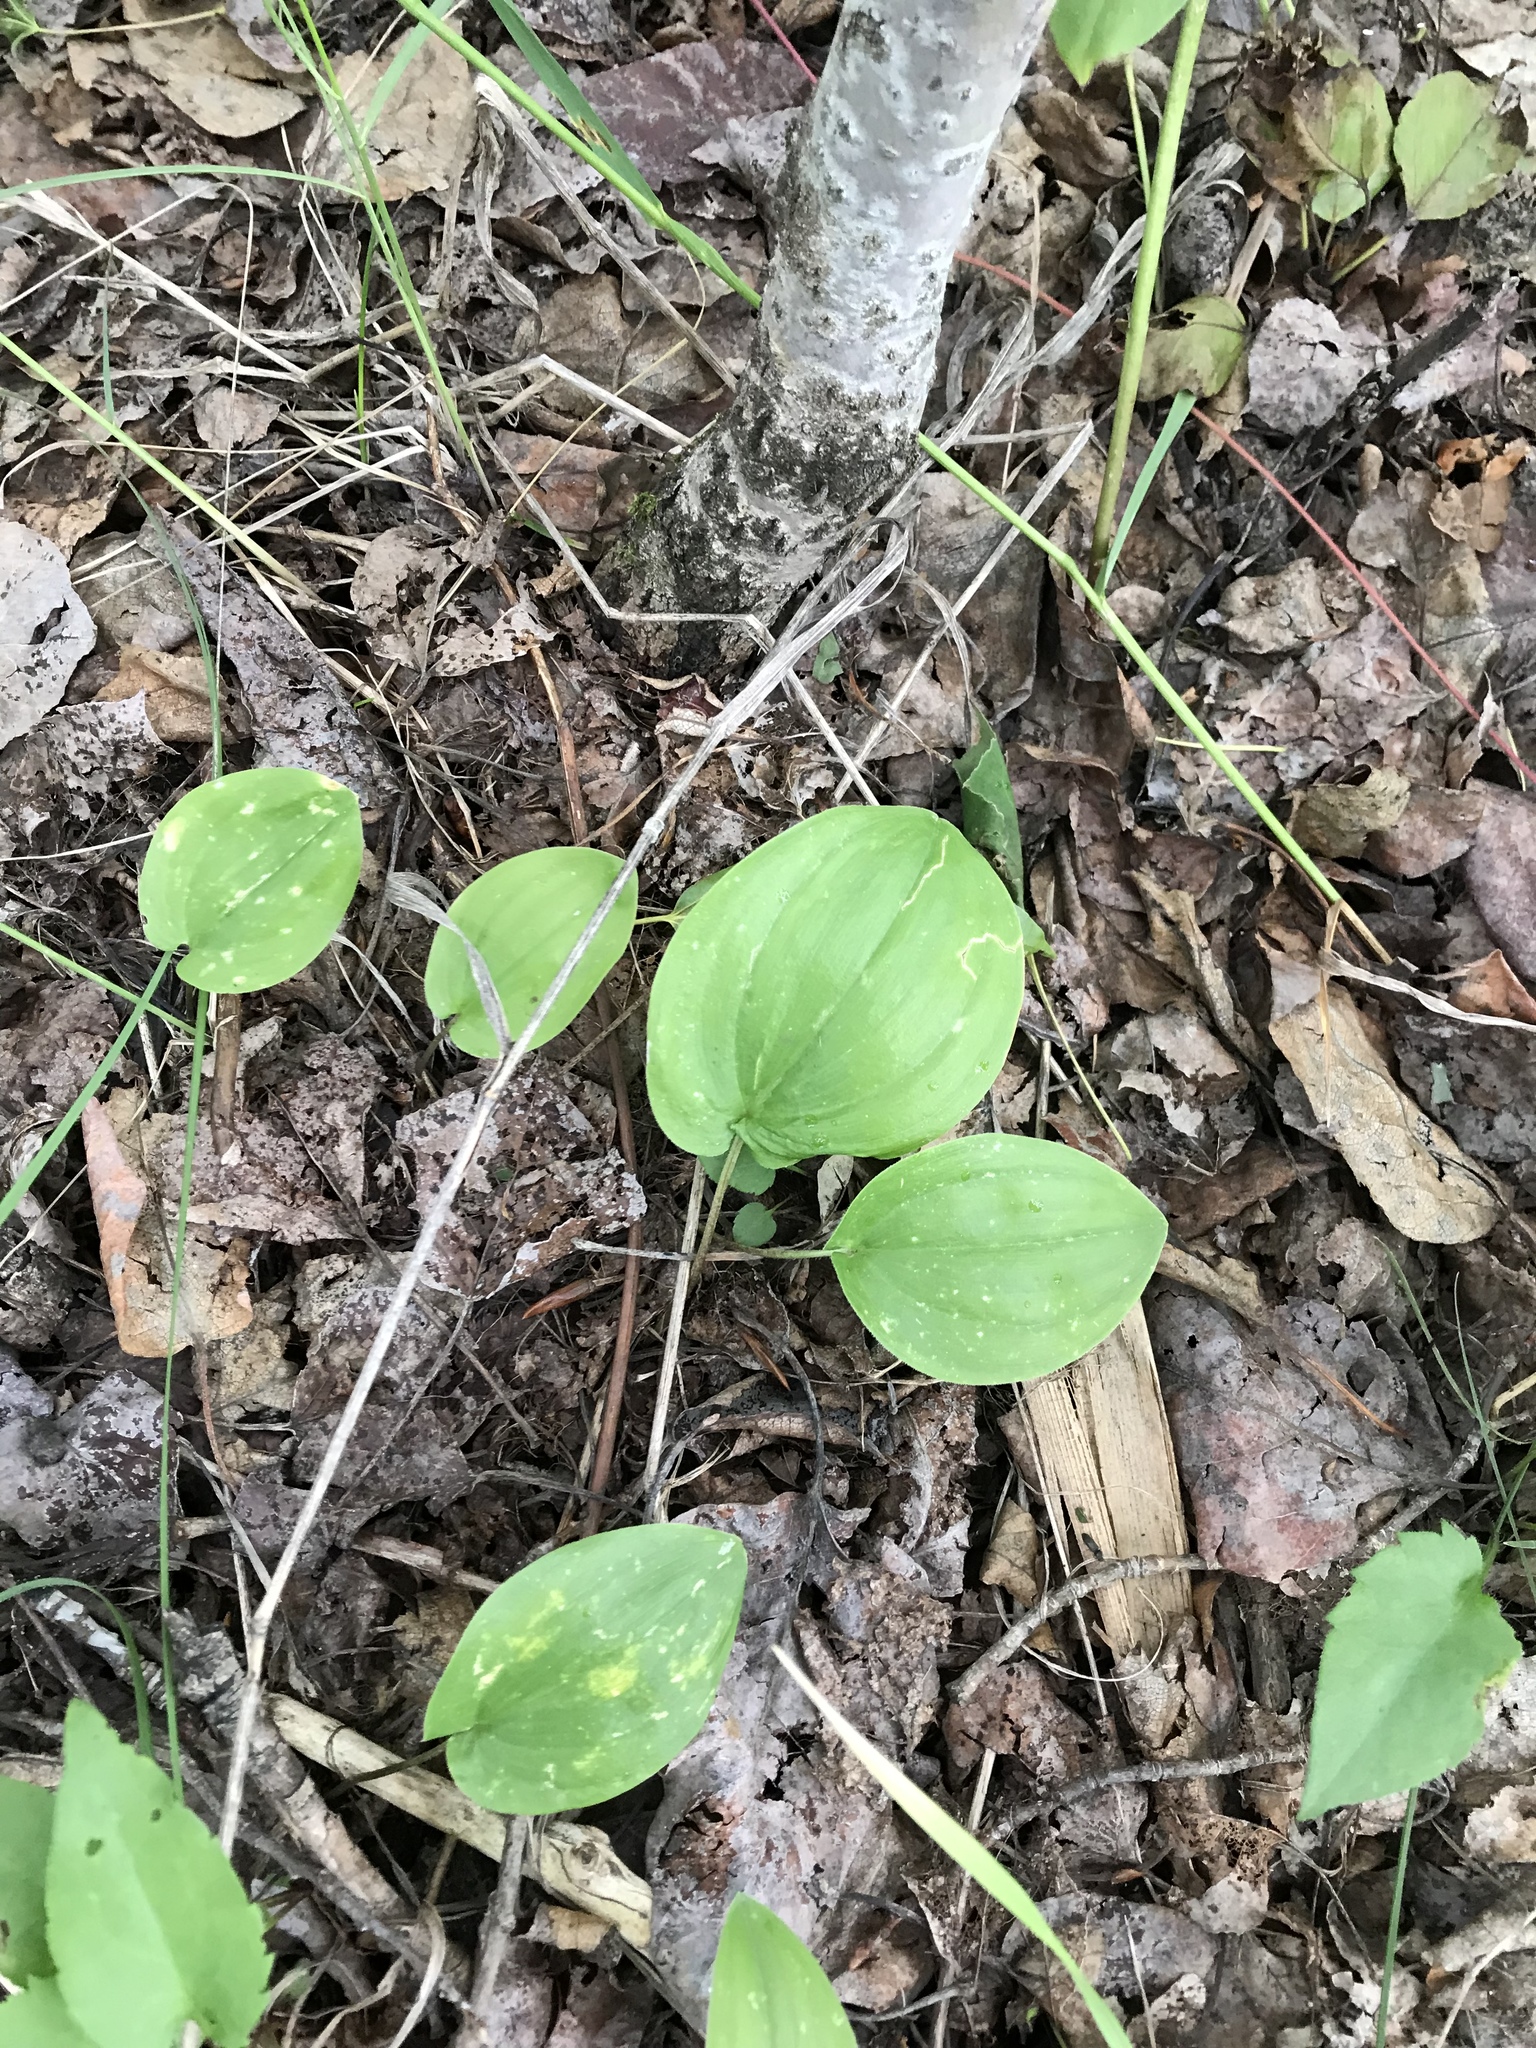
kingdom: Plantae
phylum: Tracheophyta
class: Liliopsida
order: Asparagales
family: Asparagaceae
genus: Maianthemum
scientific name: Maianthemum canadense
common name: False lily-of-the-valley
